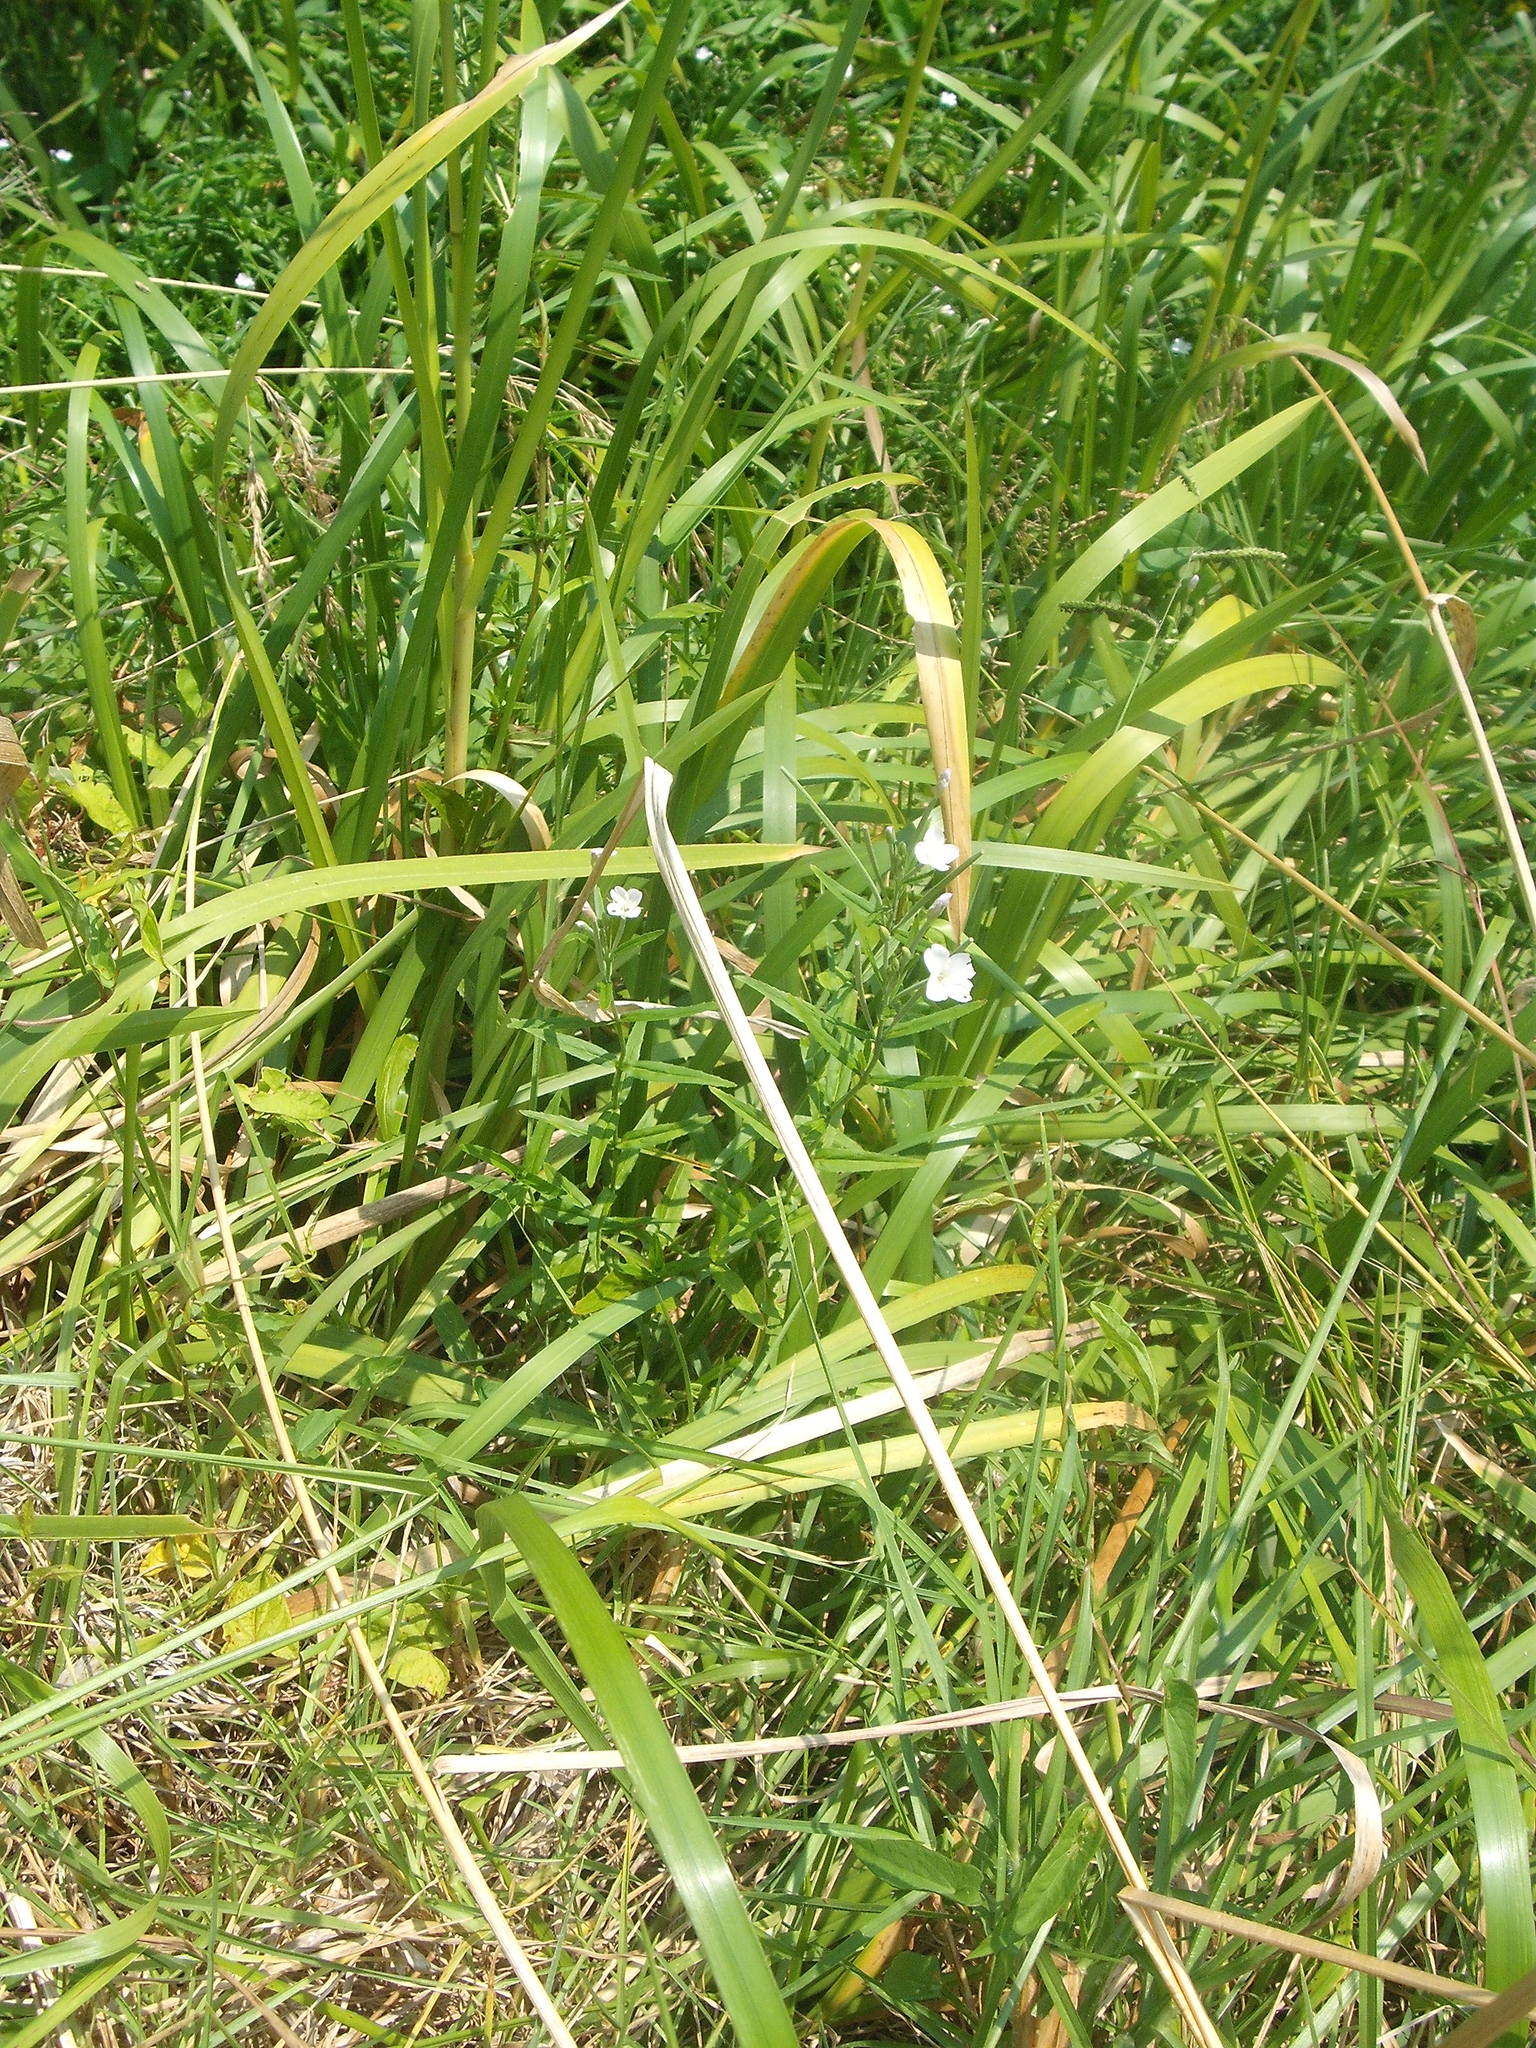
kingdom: Plantae
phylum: Tracheophyta
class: Magnoliopsida
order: Myrtales
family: Onagraceae
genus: Epilobium
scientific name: Epilobium pallidiflorum
